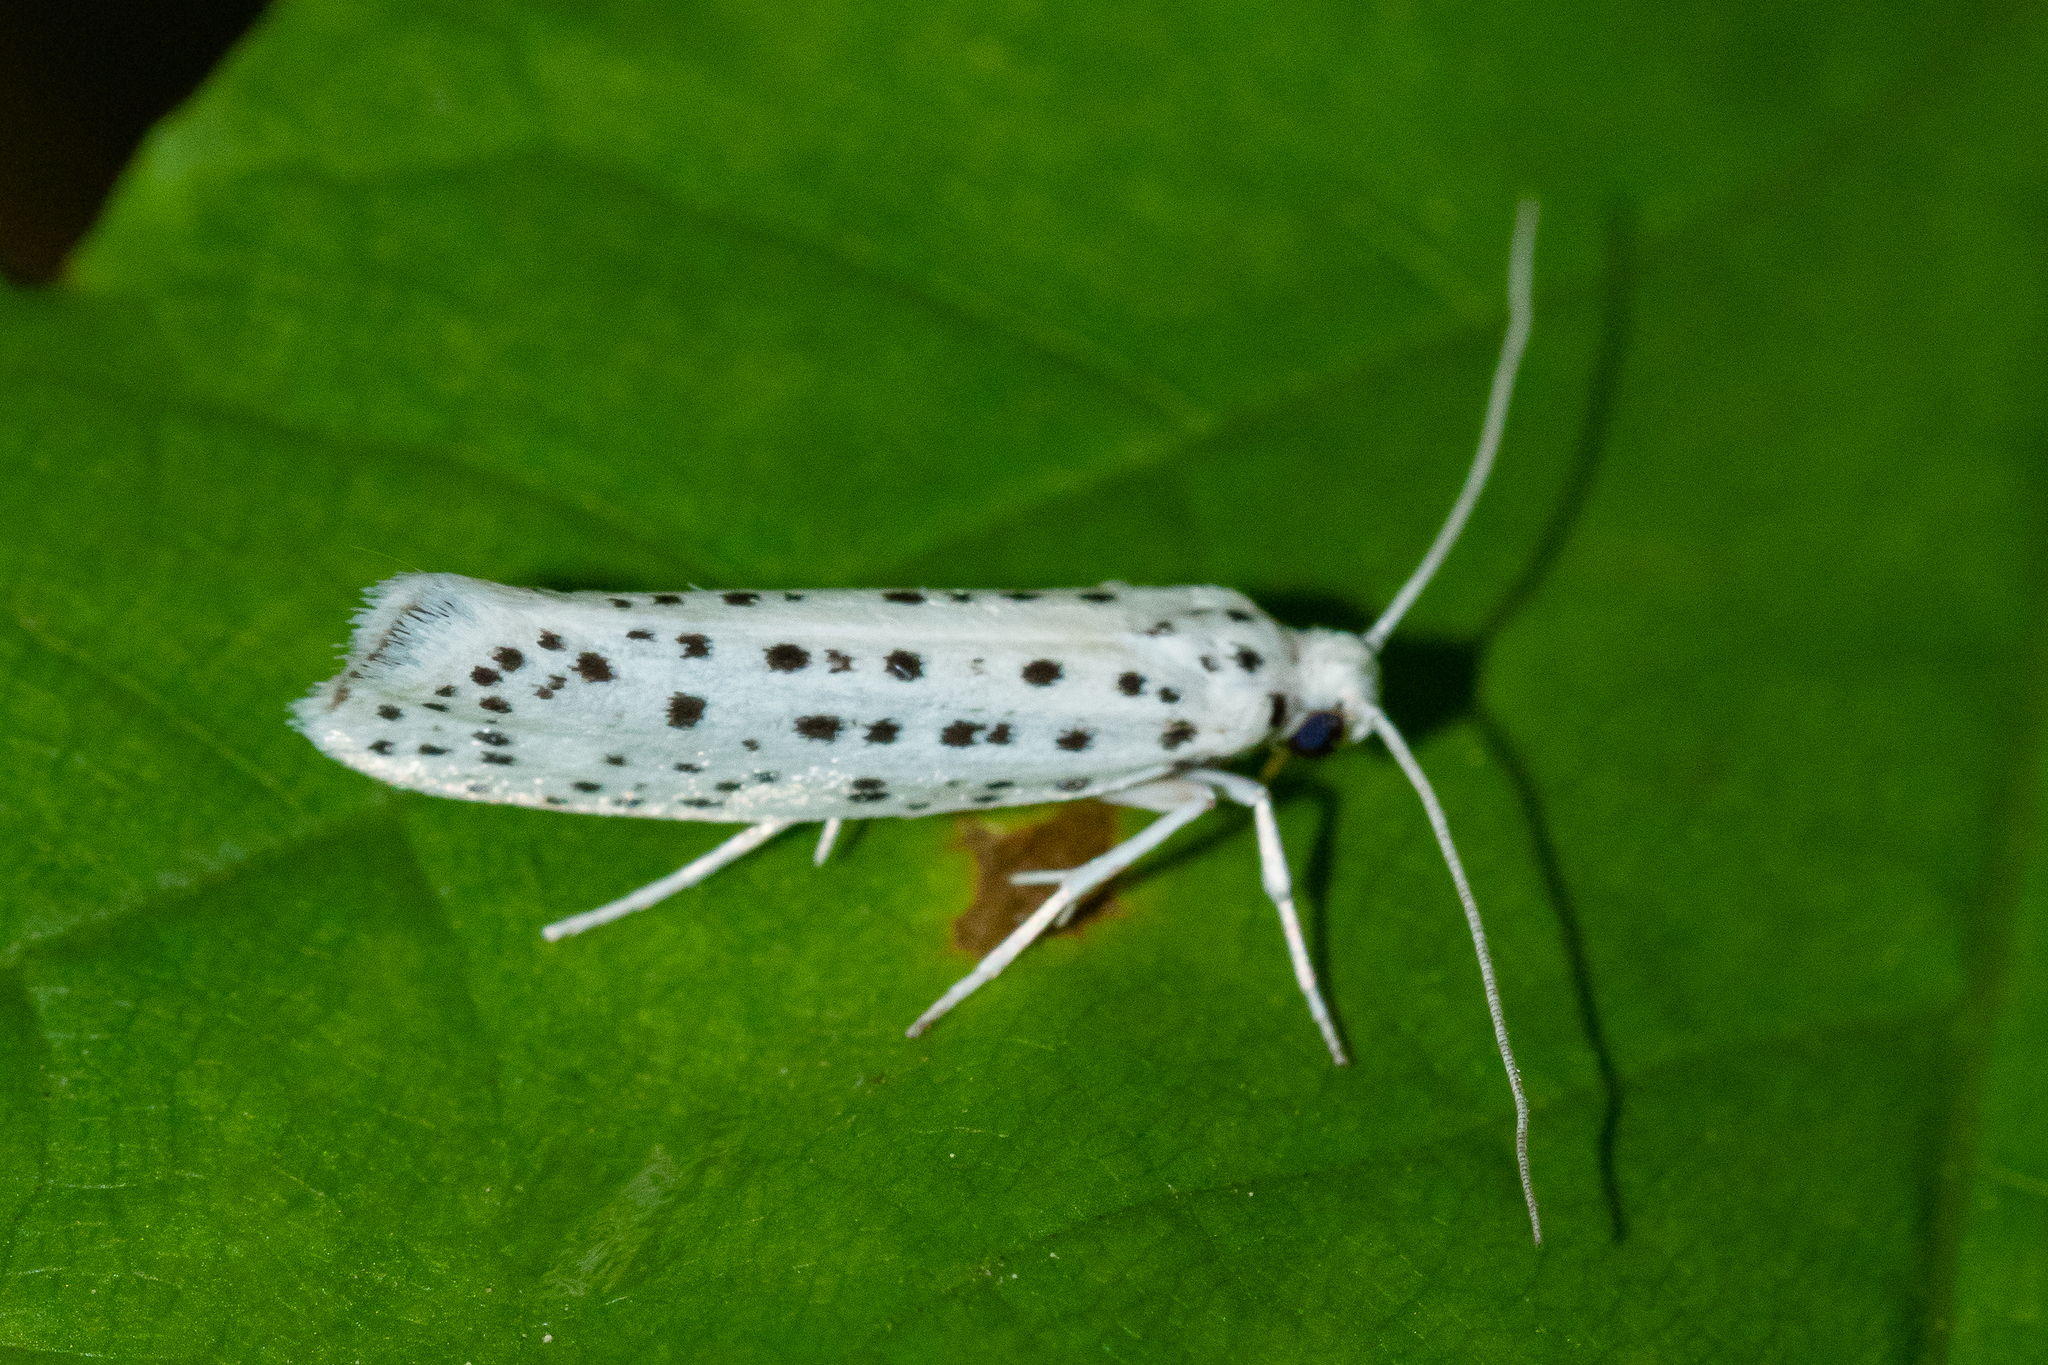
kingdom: Animalia
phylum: Arthropoda
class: Insecta
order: Lepidoptera
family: Yponomeutidae
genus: Yponomeuta
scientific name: Yponomeuta multipunctella
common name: American ermine moth
